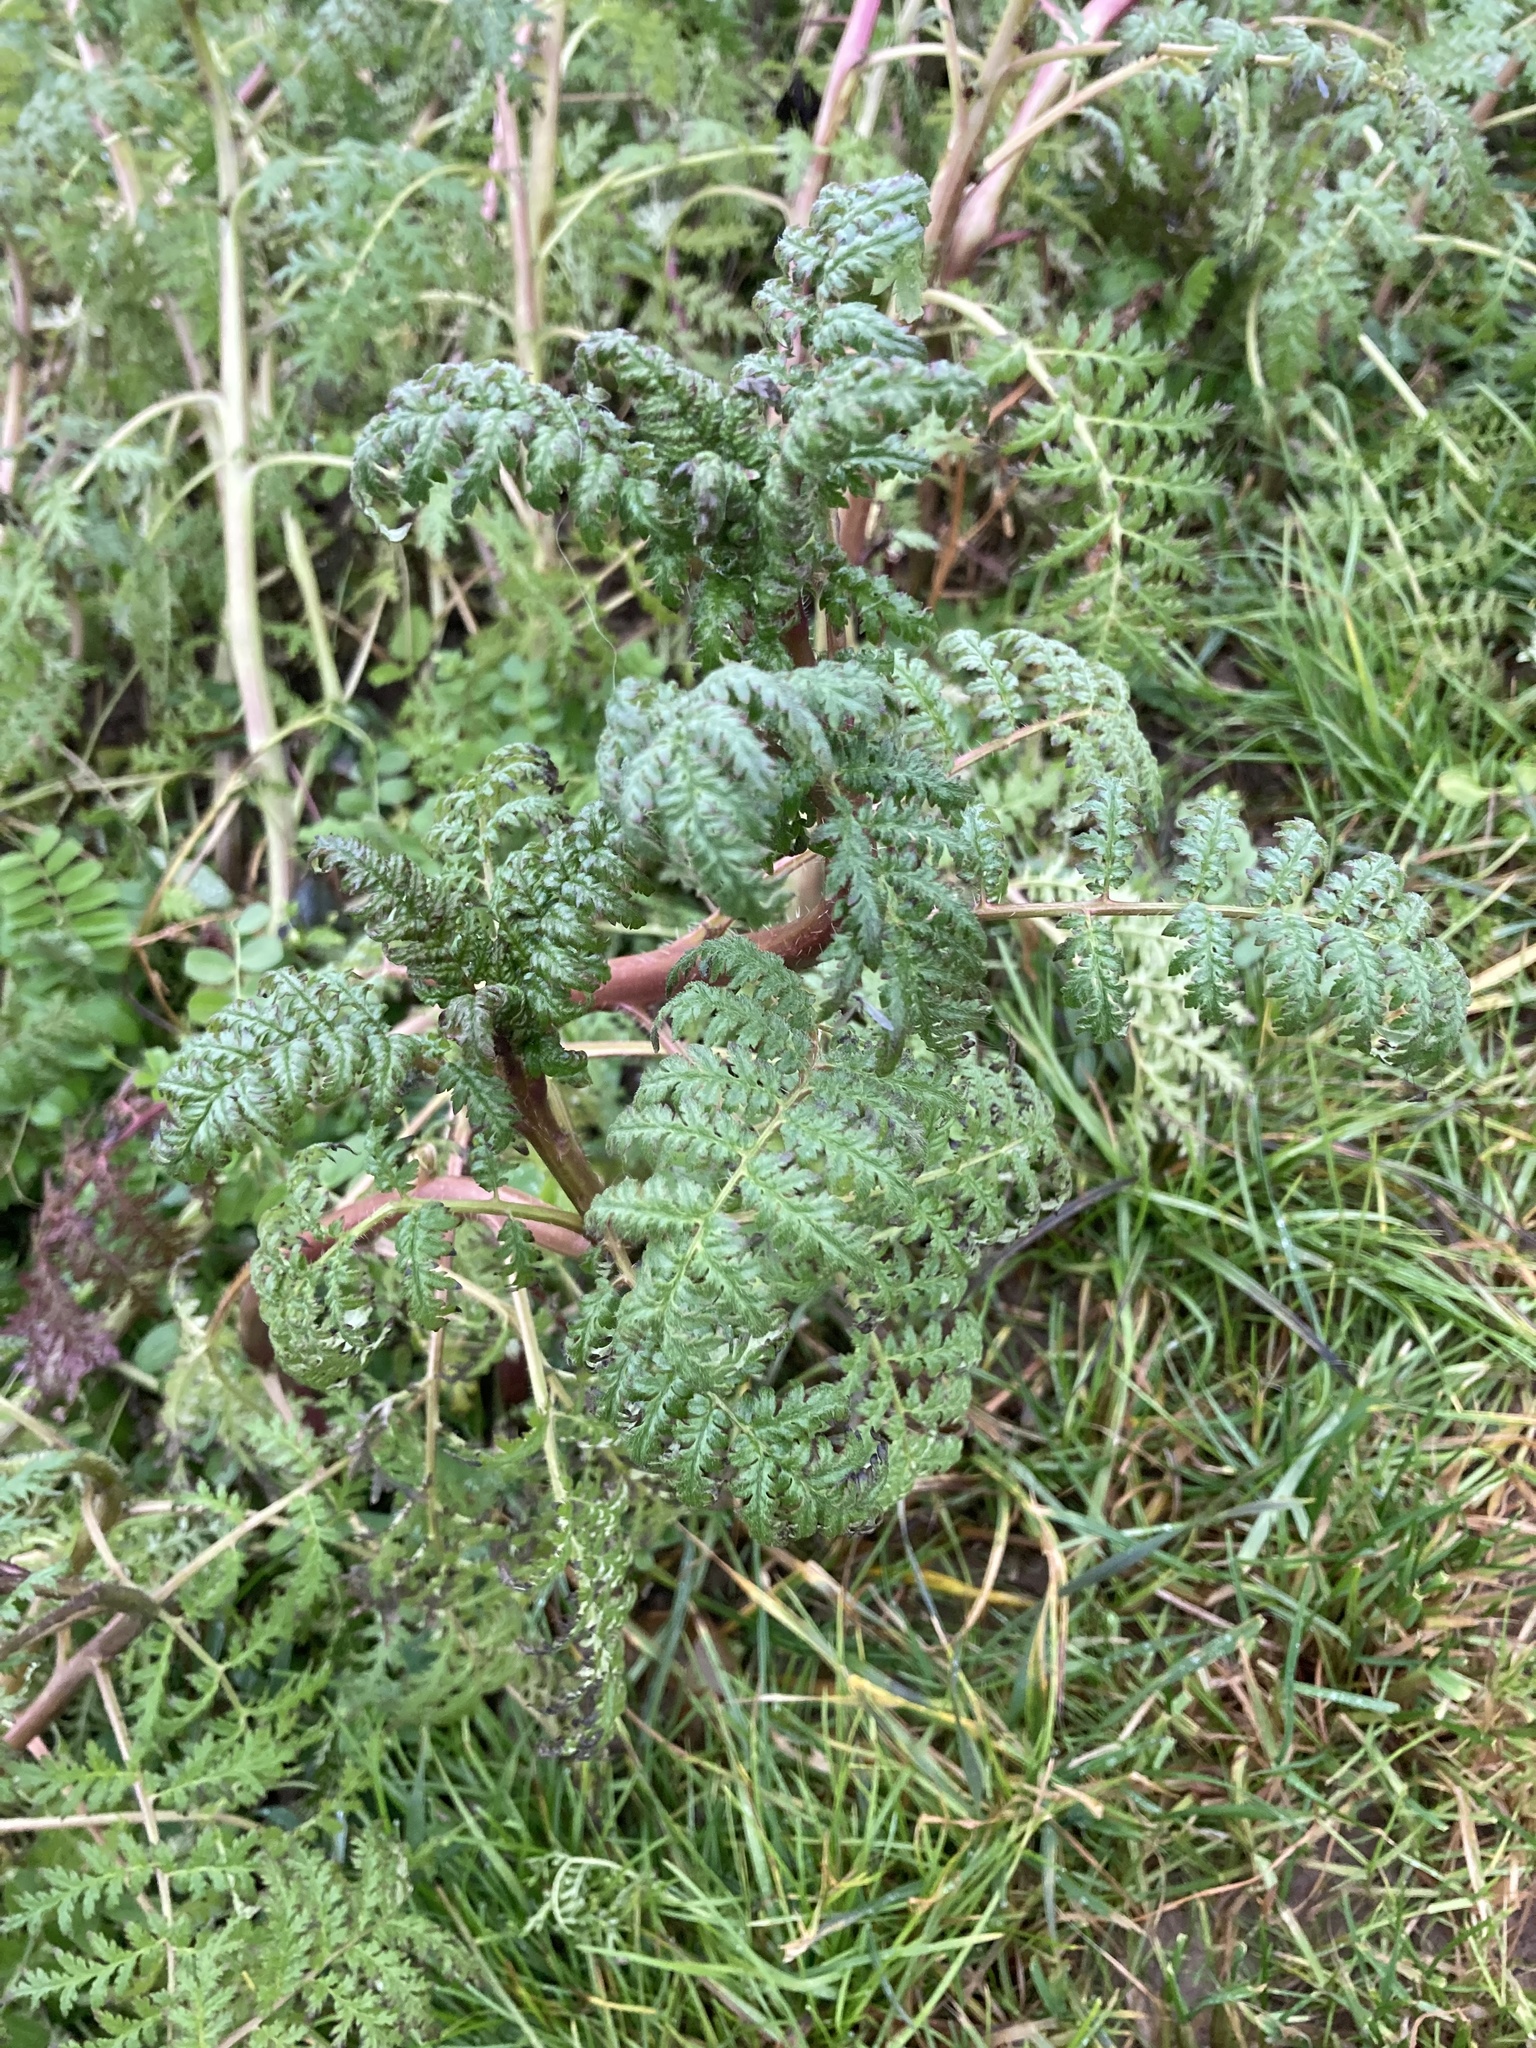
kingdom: Plantae
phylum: Tracheophyta
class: Magnoliopsida
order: Boraginales
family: Hydrophyllaceae
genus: Phacelia
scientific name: Phacelia tanacetifolia
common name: Phacelia
